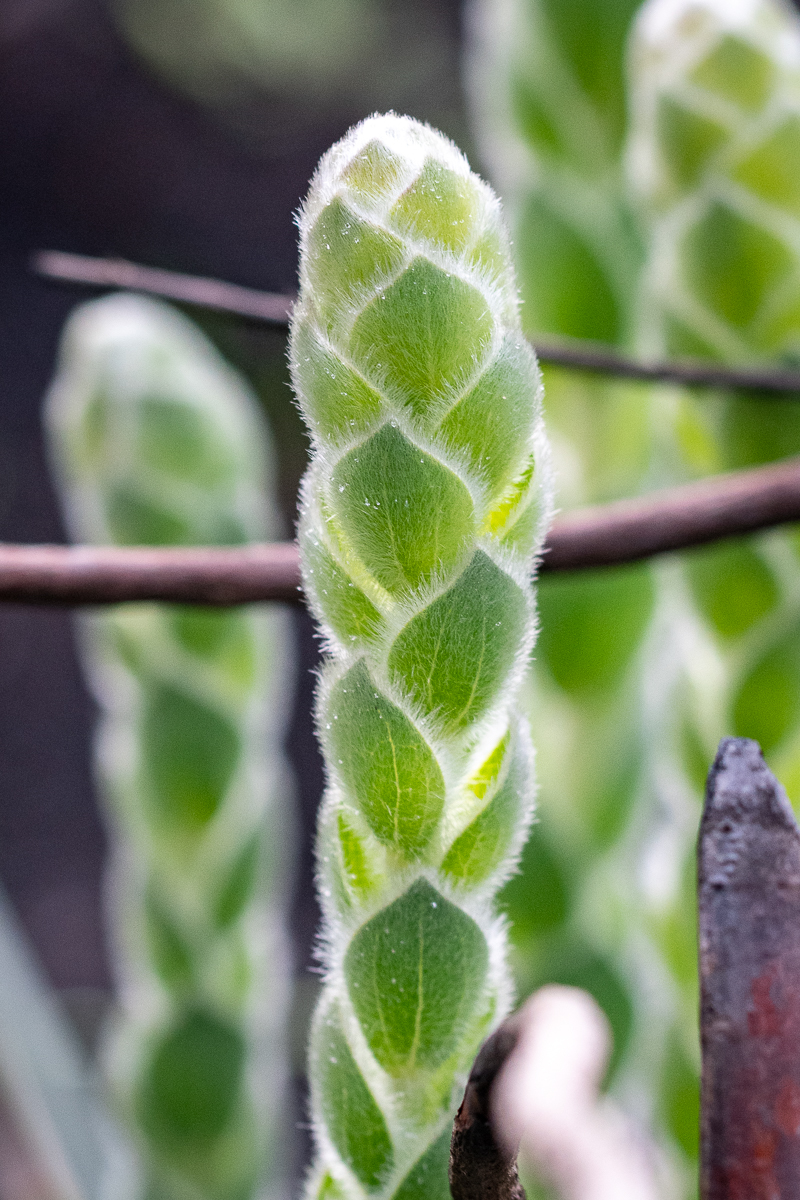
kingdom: Plantae
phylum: Tracheophyta
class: Magnoliopsida
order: Fabales
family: Fabaceae
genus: Liparia
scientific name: Liparia vestita
